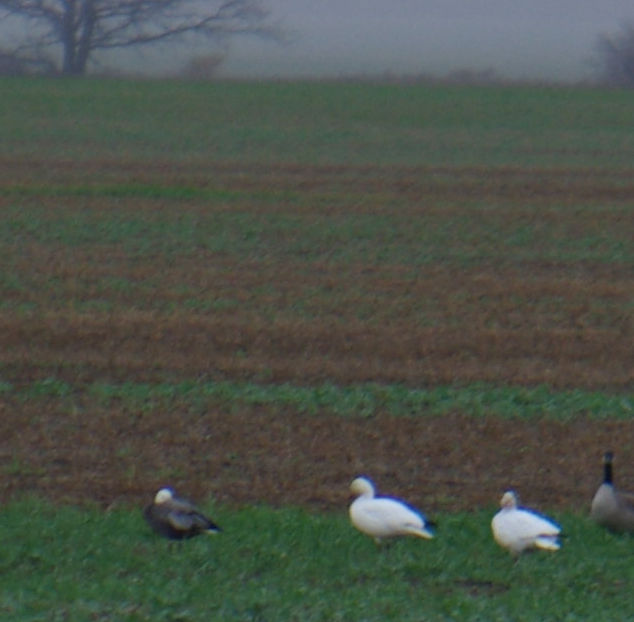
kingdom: Animalia
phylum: Chordata
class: Aves
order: Anseriformes
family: Anatidae
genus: Anser
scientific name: Anser caerulescens
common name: Snow goose
